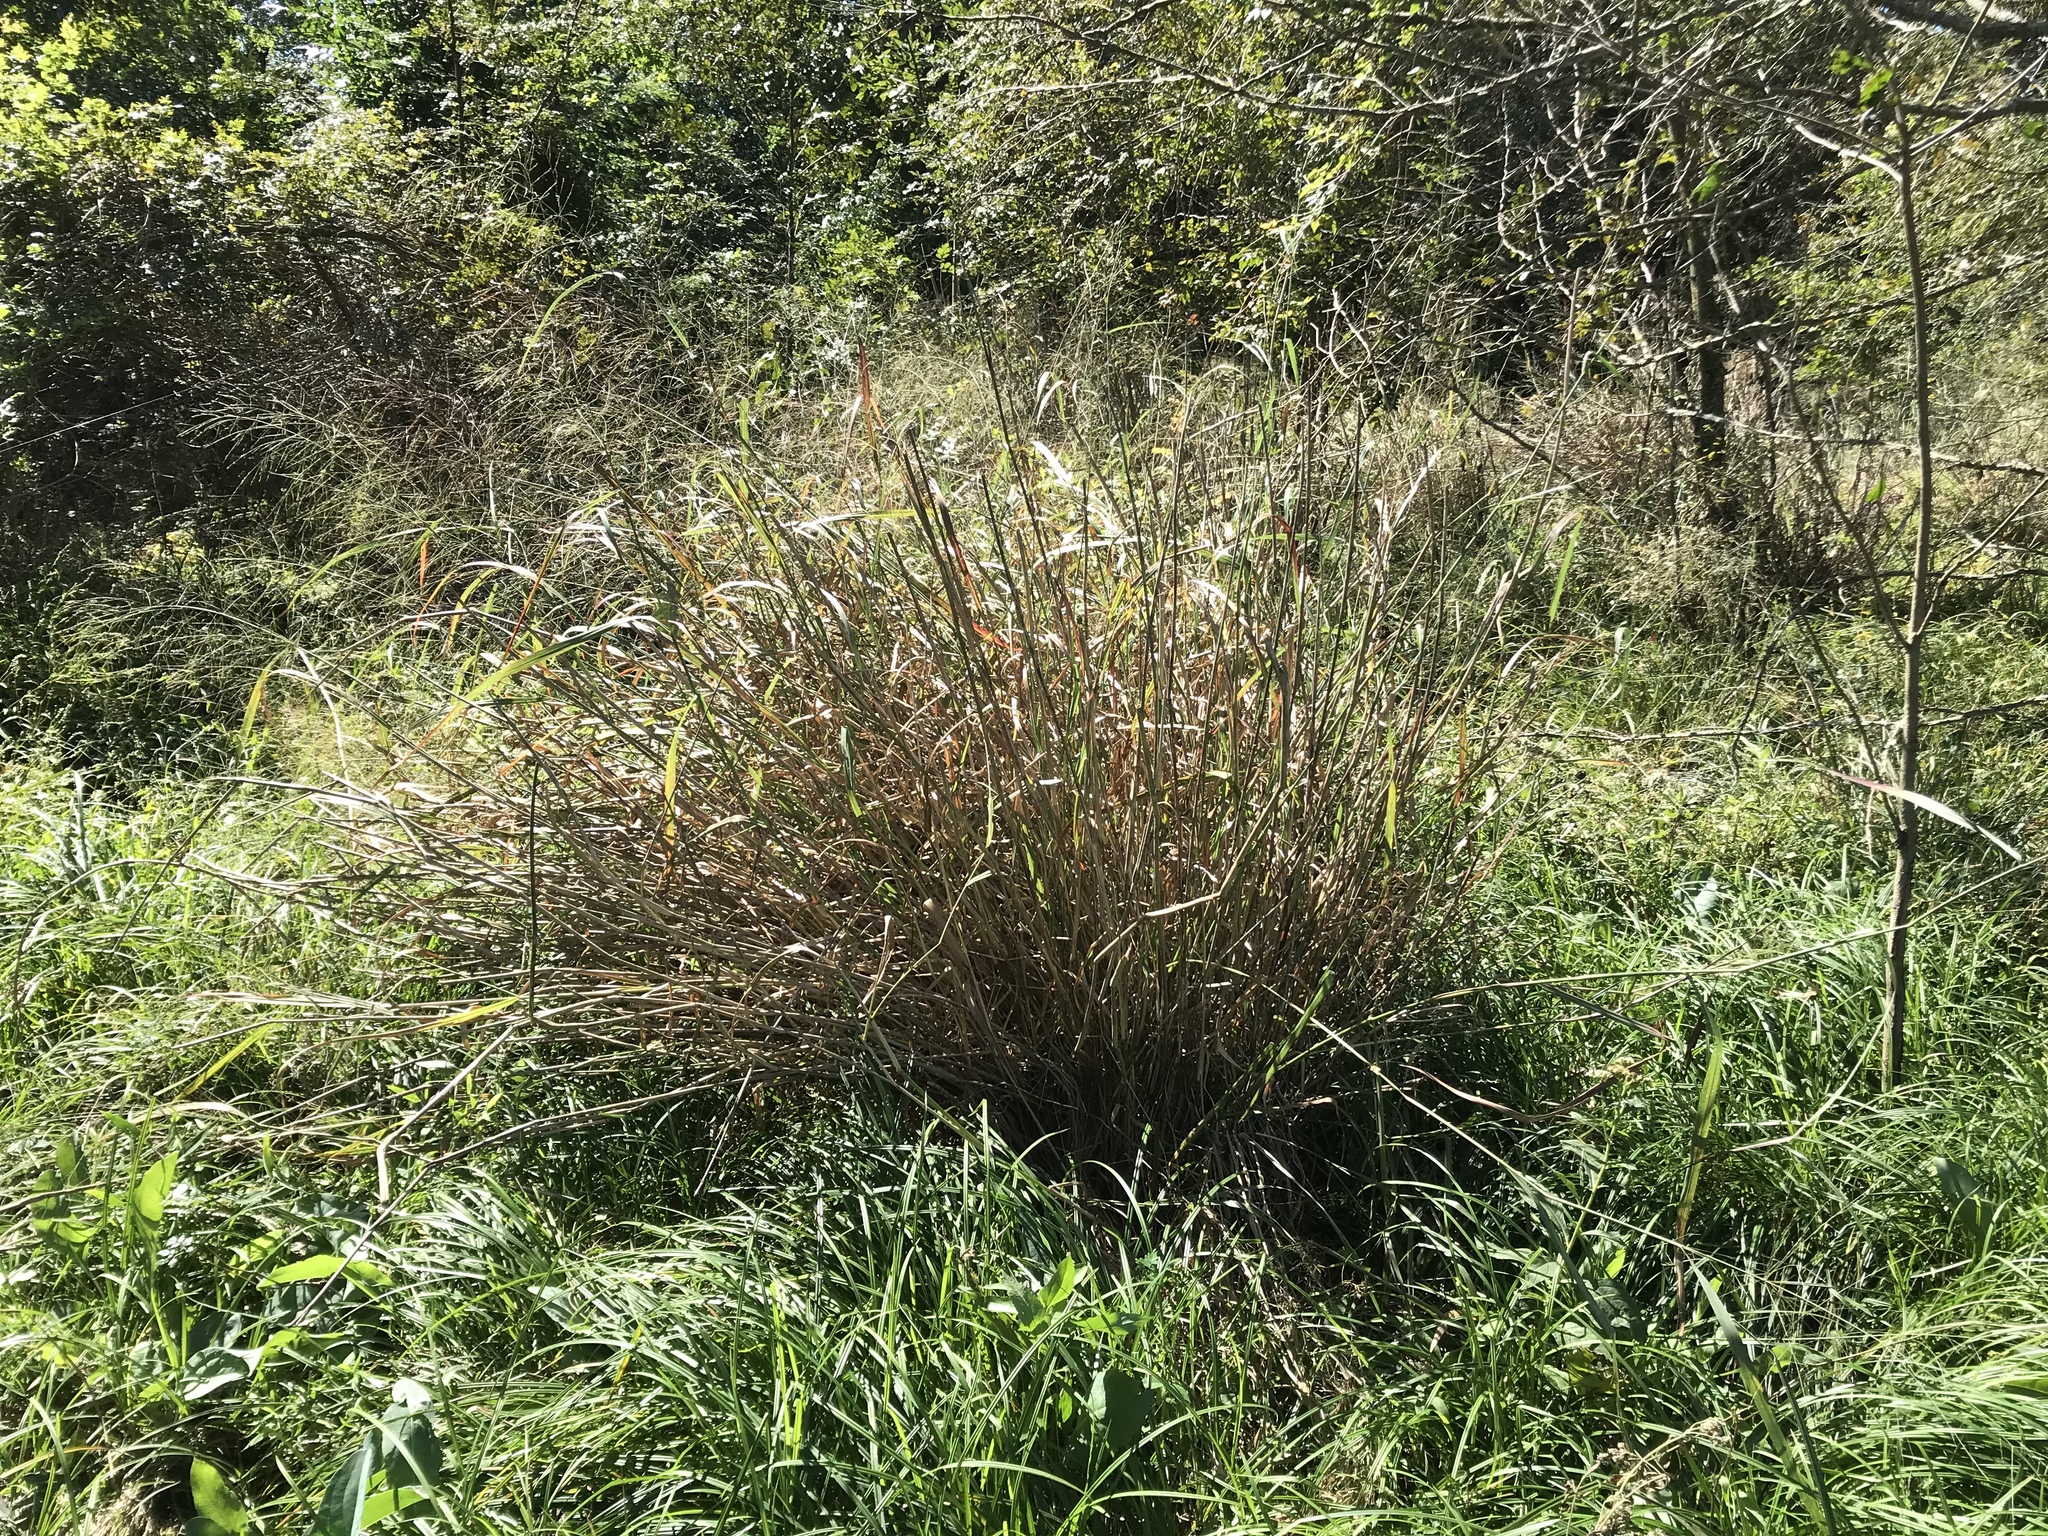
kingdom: Plantae
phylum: Tracheophyta
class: Liliopsida
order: Poales
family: Poaceae
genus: Panicum
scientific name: Panicum virgatum
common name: Switchgrass
